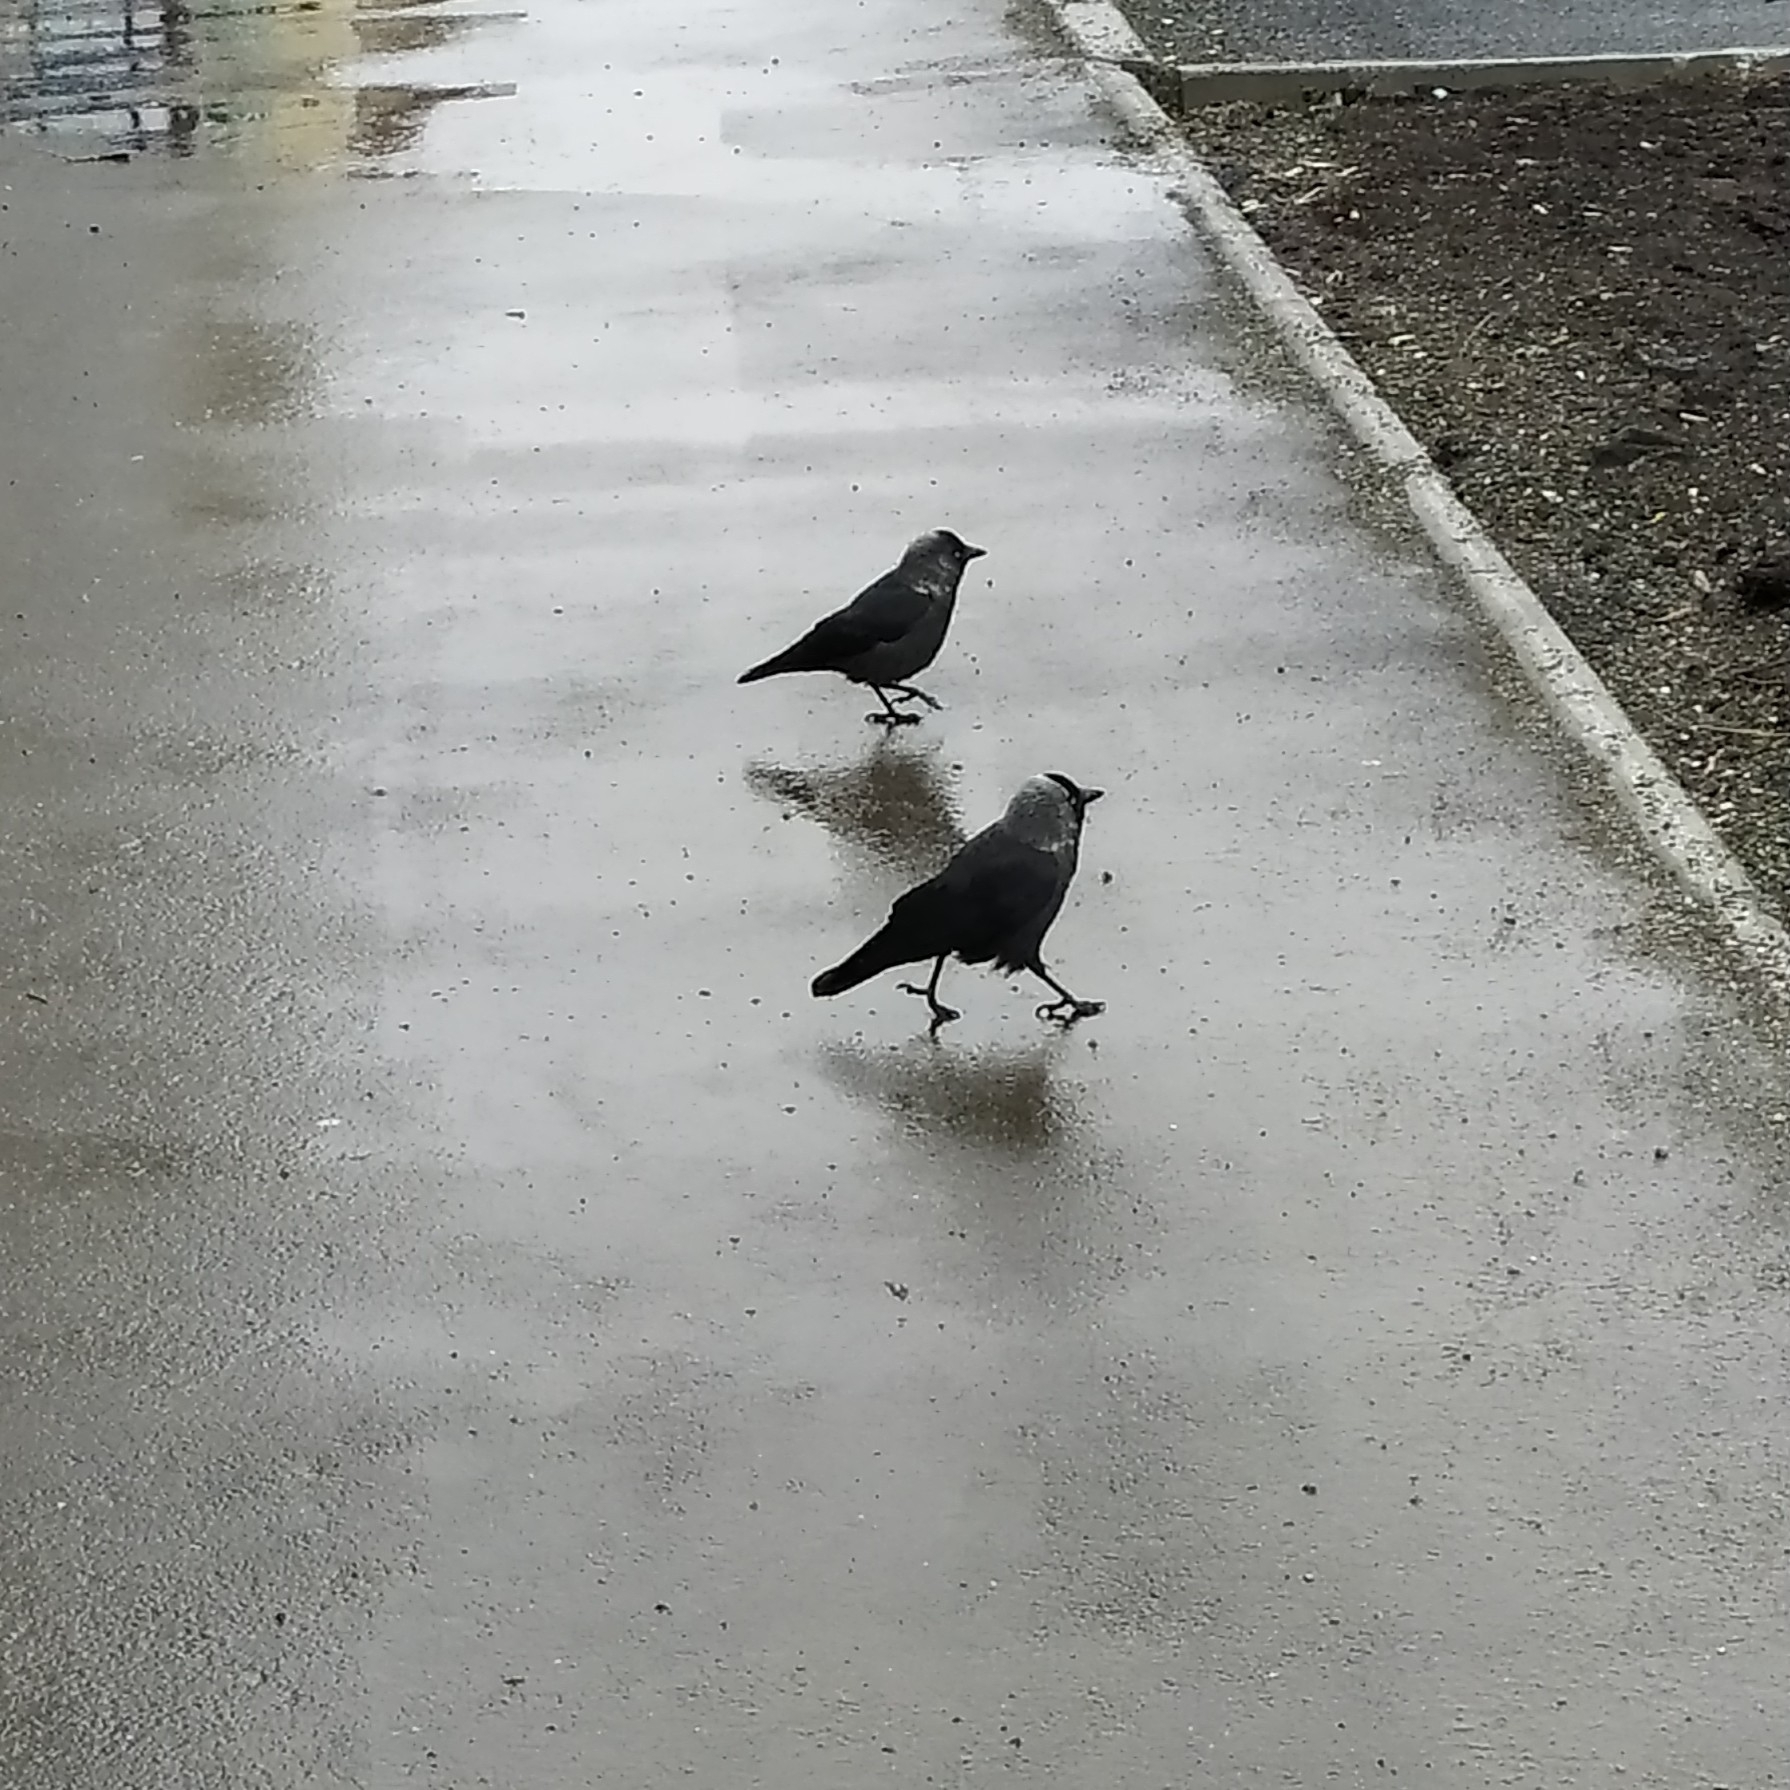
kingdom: Animalia
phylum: Chordata
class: Aves
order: Passeriformes
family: Corvidae
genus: Coloeus
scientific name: Coloeus monedula
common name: Western jackdaw
